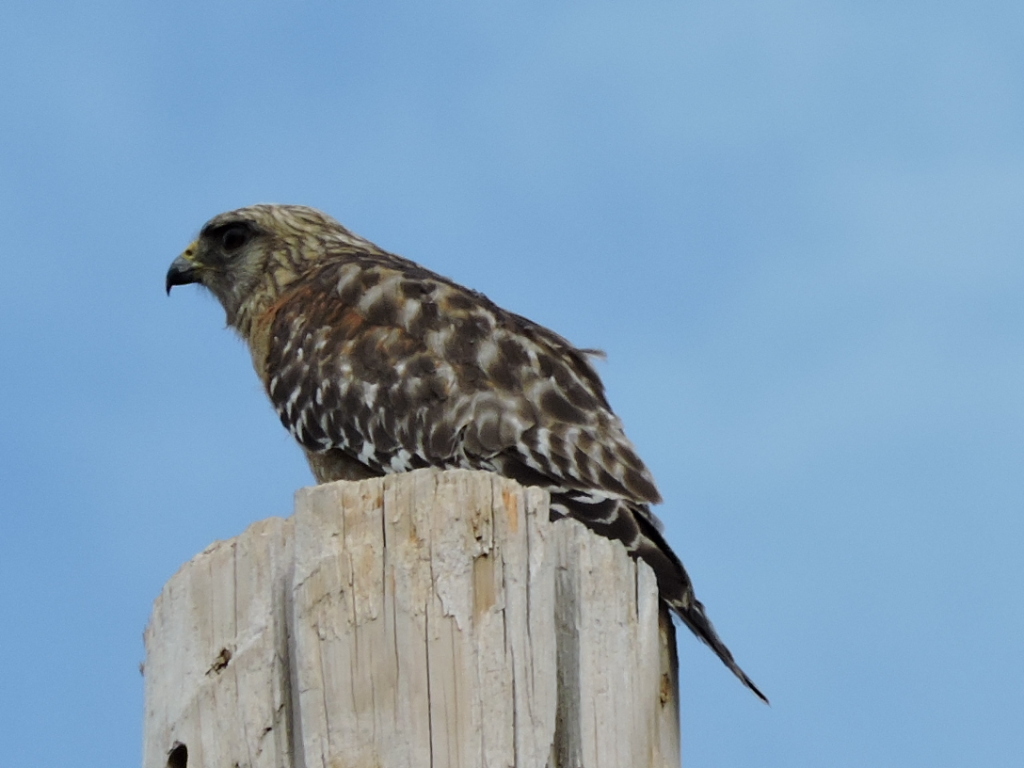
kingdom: Animalia
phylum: Chordata
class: Aves
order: Accipitriformes
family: Accipitridae
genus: Buteo
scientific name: Buteo lineatus
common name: Red-shouldered hawk
